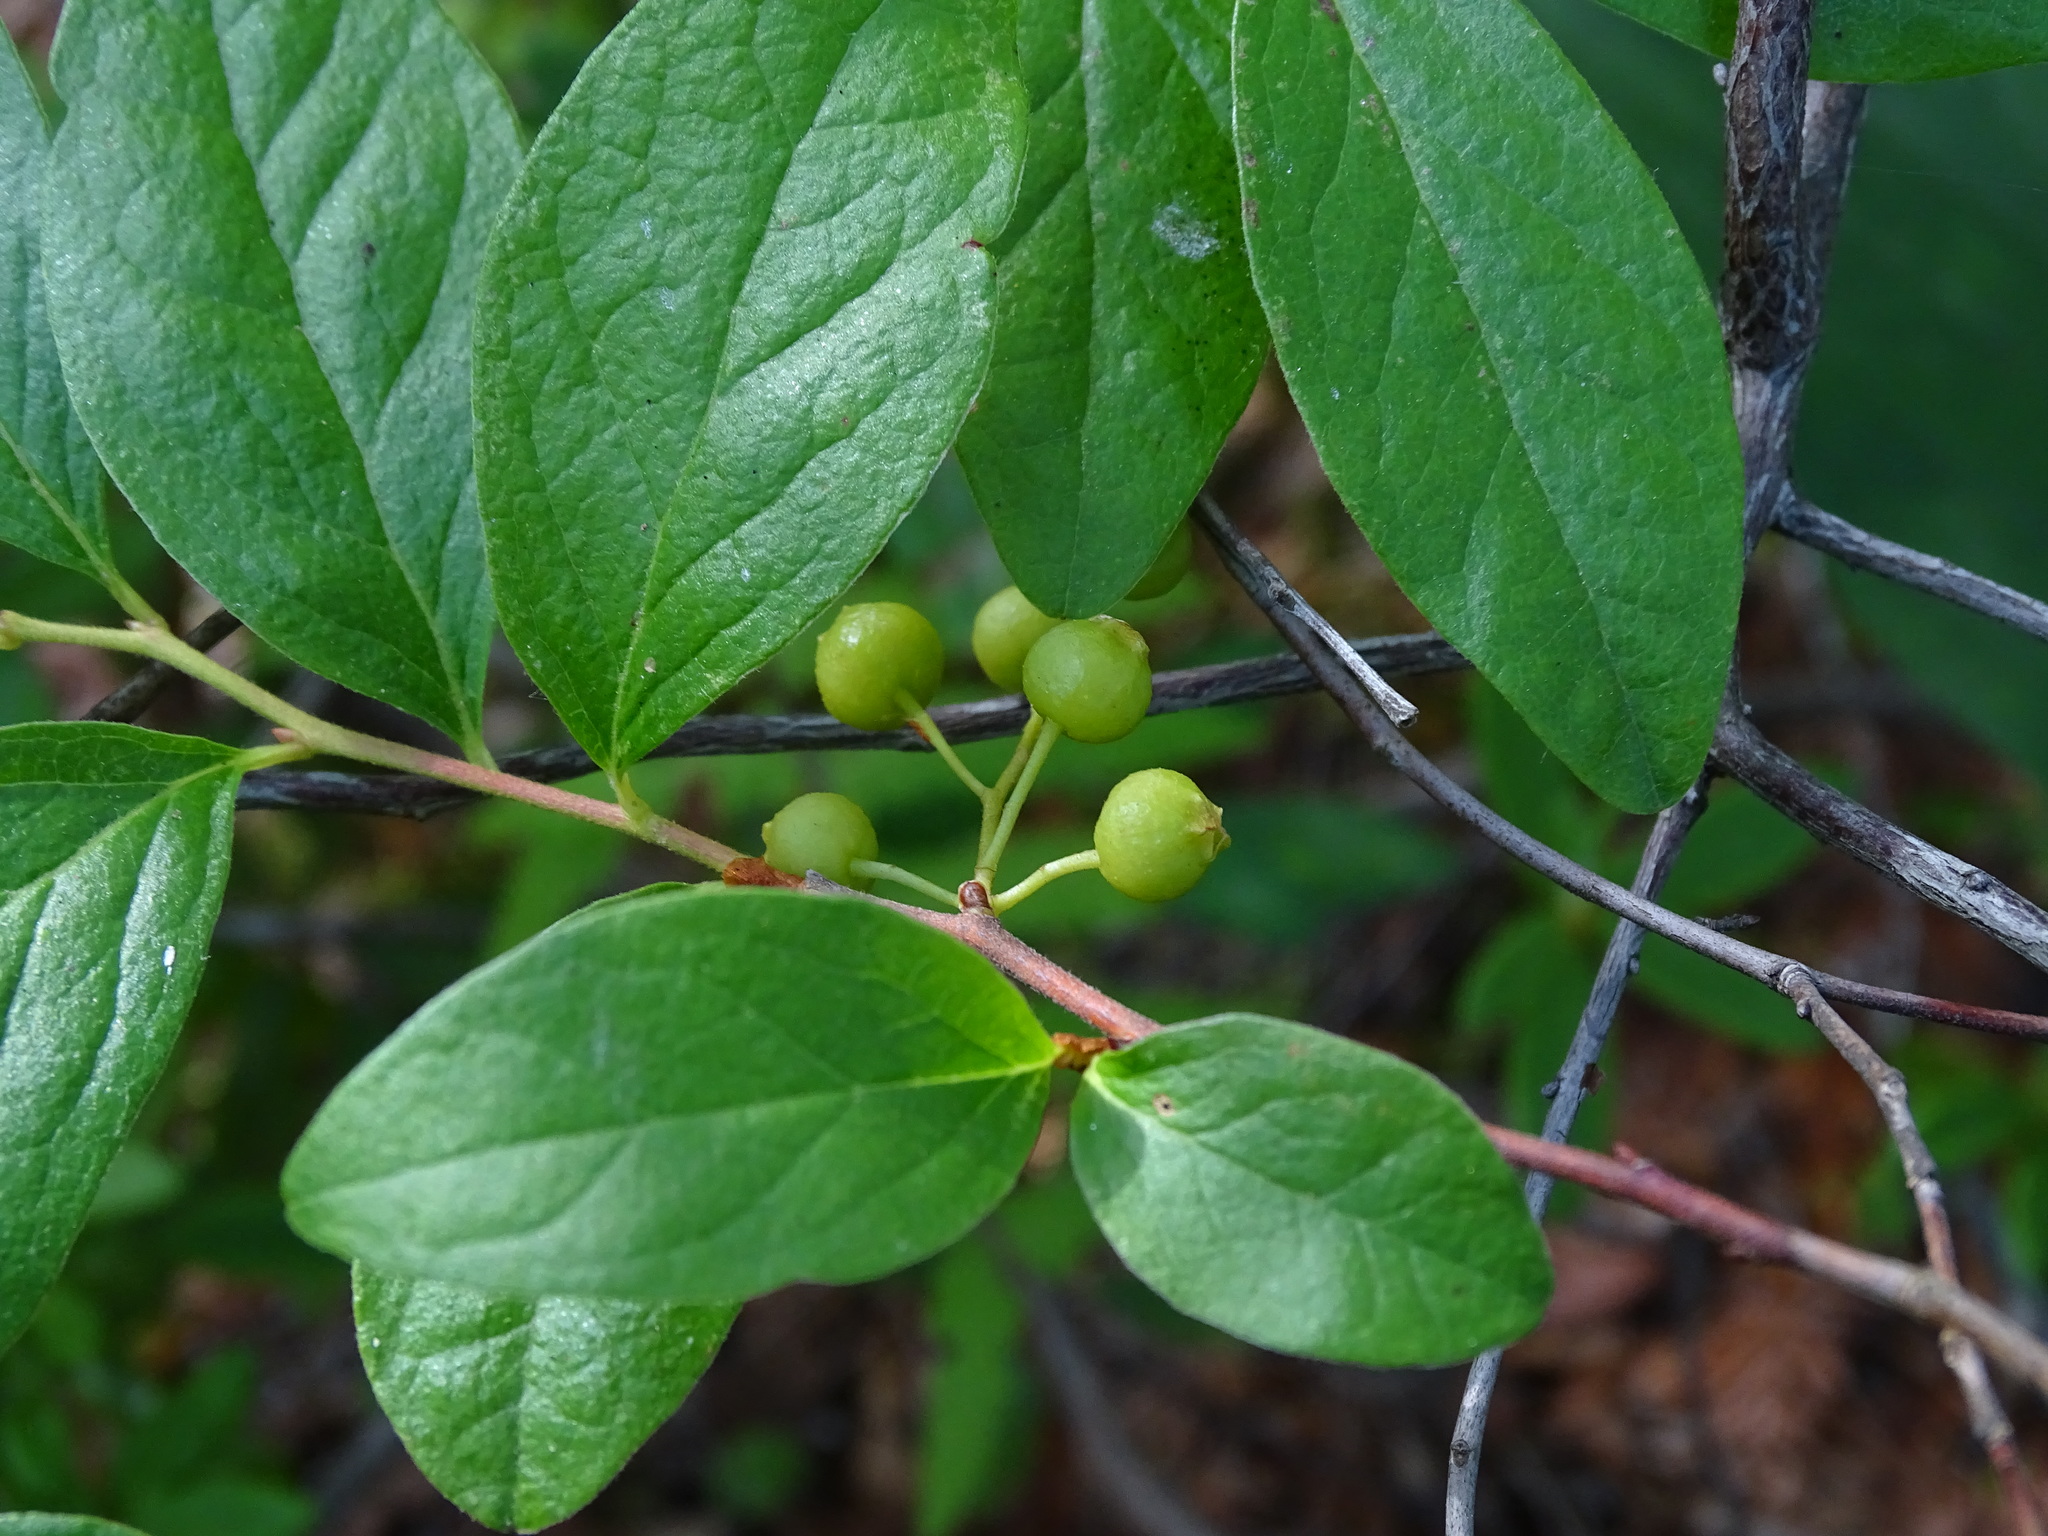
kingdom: Plantae
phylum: Tracheophyta
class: Magnoliopsida
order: Ericales
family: Ericaceae
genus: Gaylussacia
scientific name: Gaylussacia baccata
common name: Black huckleberry
